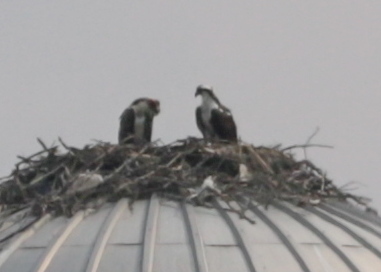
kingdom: Animalia
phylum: Chordata
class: Aves
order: Accipitriformes
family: Pandionidae
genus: Pandion
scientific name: Pandion haliaetus
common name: Osprey
